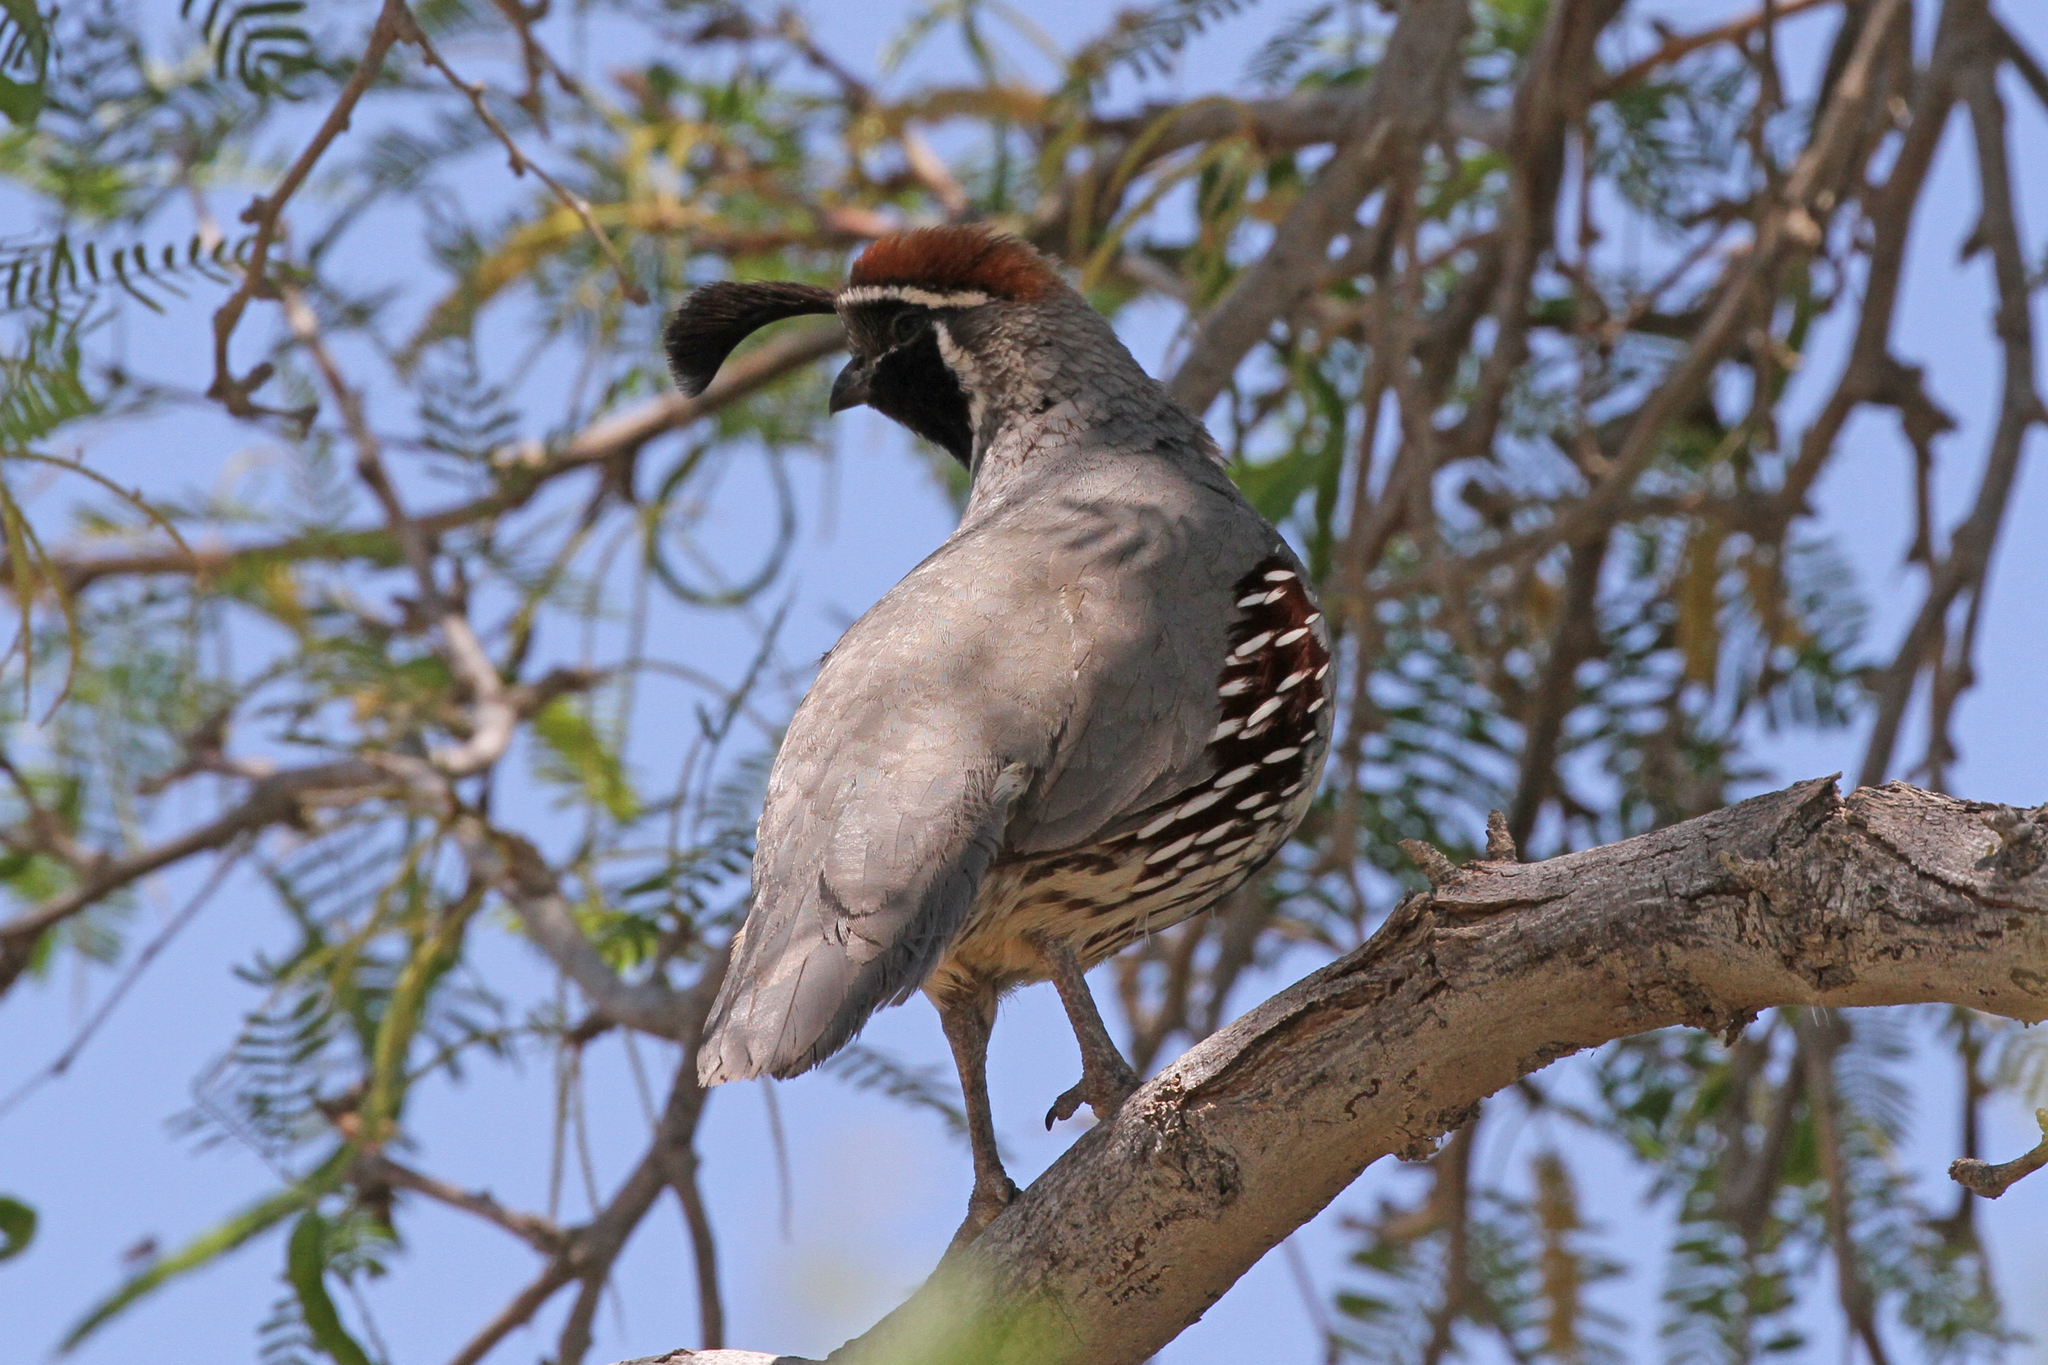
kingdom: Animalia
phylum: Chordata
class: Aves
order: Galliformes
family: Odontophoridae
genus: Callipepla
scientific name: Callipepla gambelii
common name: Gambel's quail
